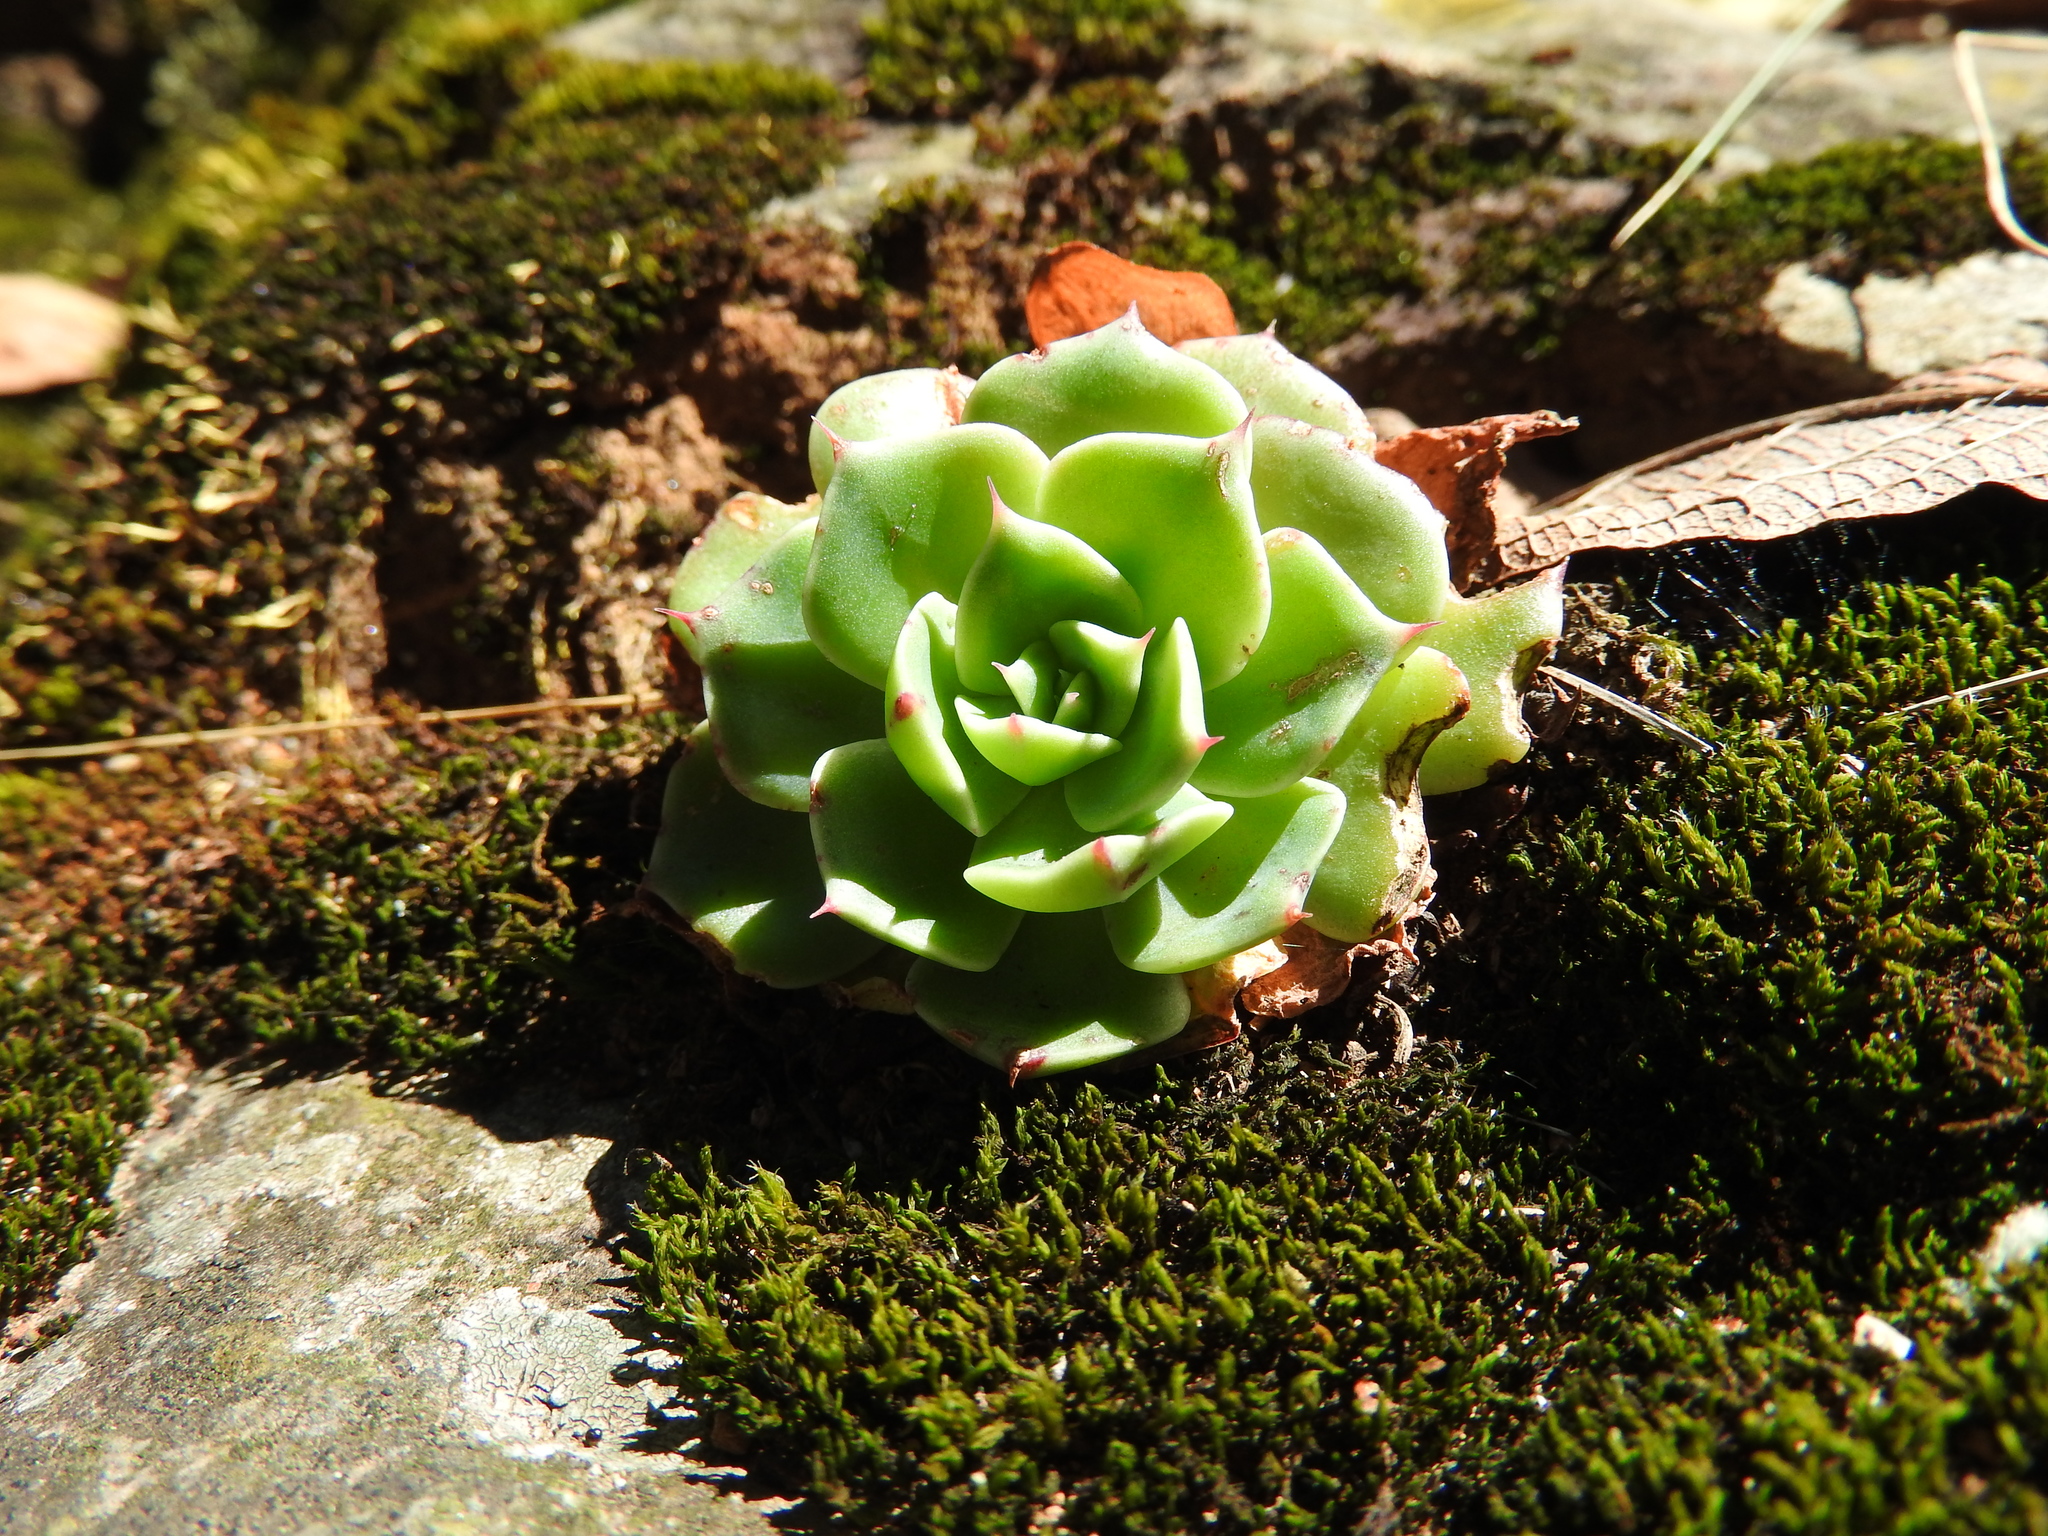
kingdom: Plantae
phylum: Tracheophyta
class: Magnoliopsida
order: Saxifragales
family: Crassulaceae
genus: Echeveria
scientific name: Echeveria secunda
